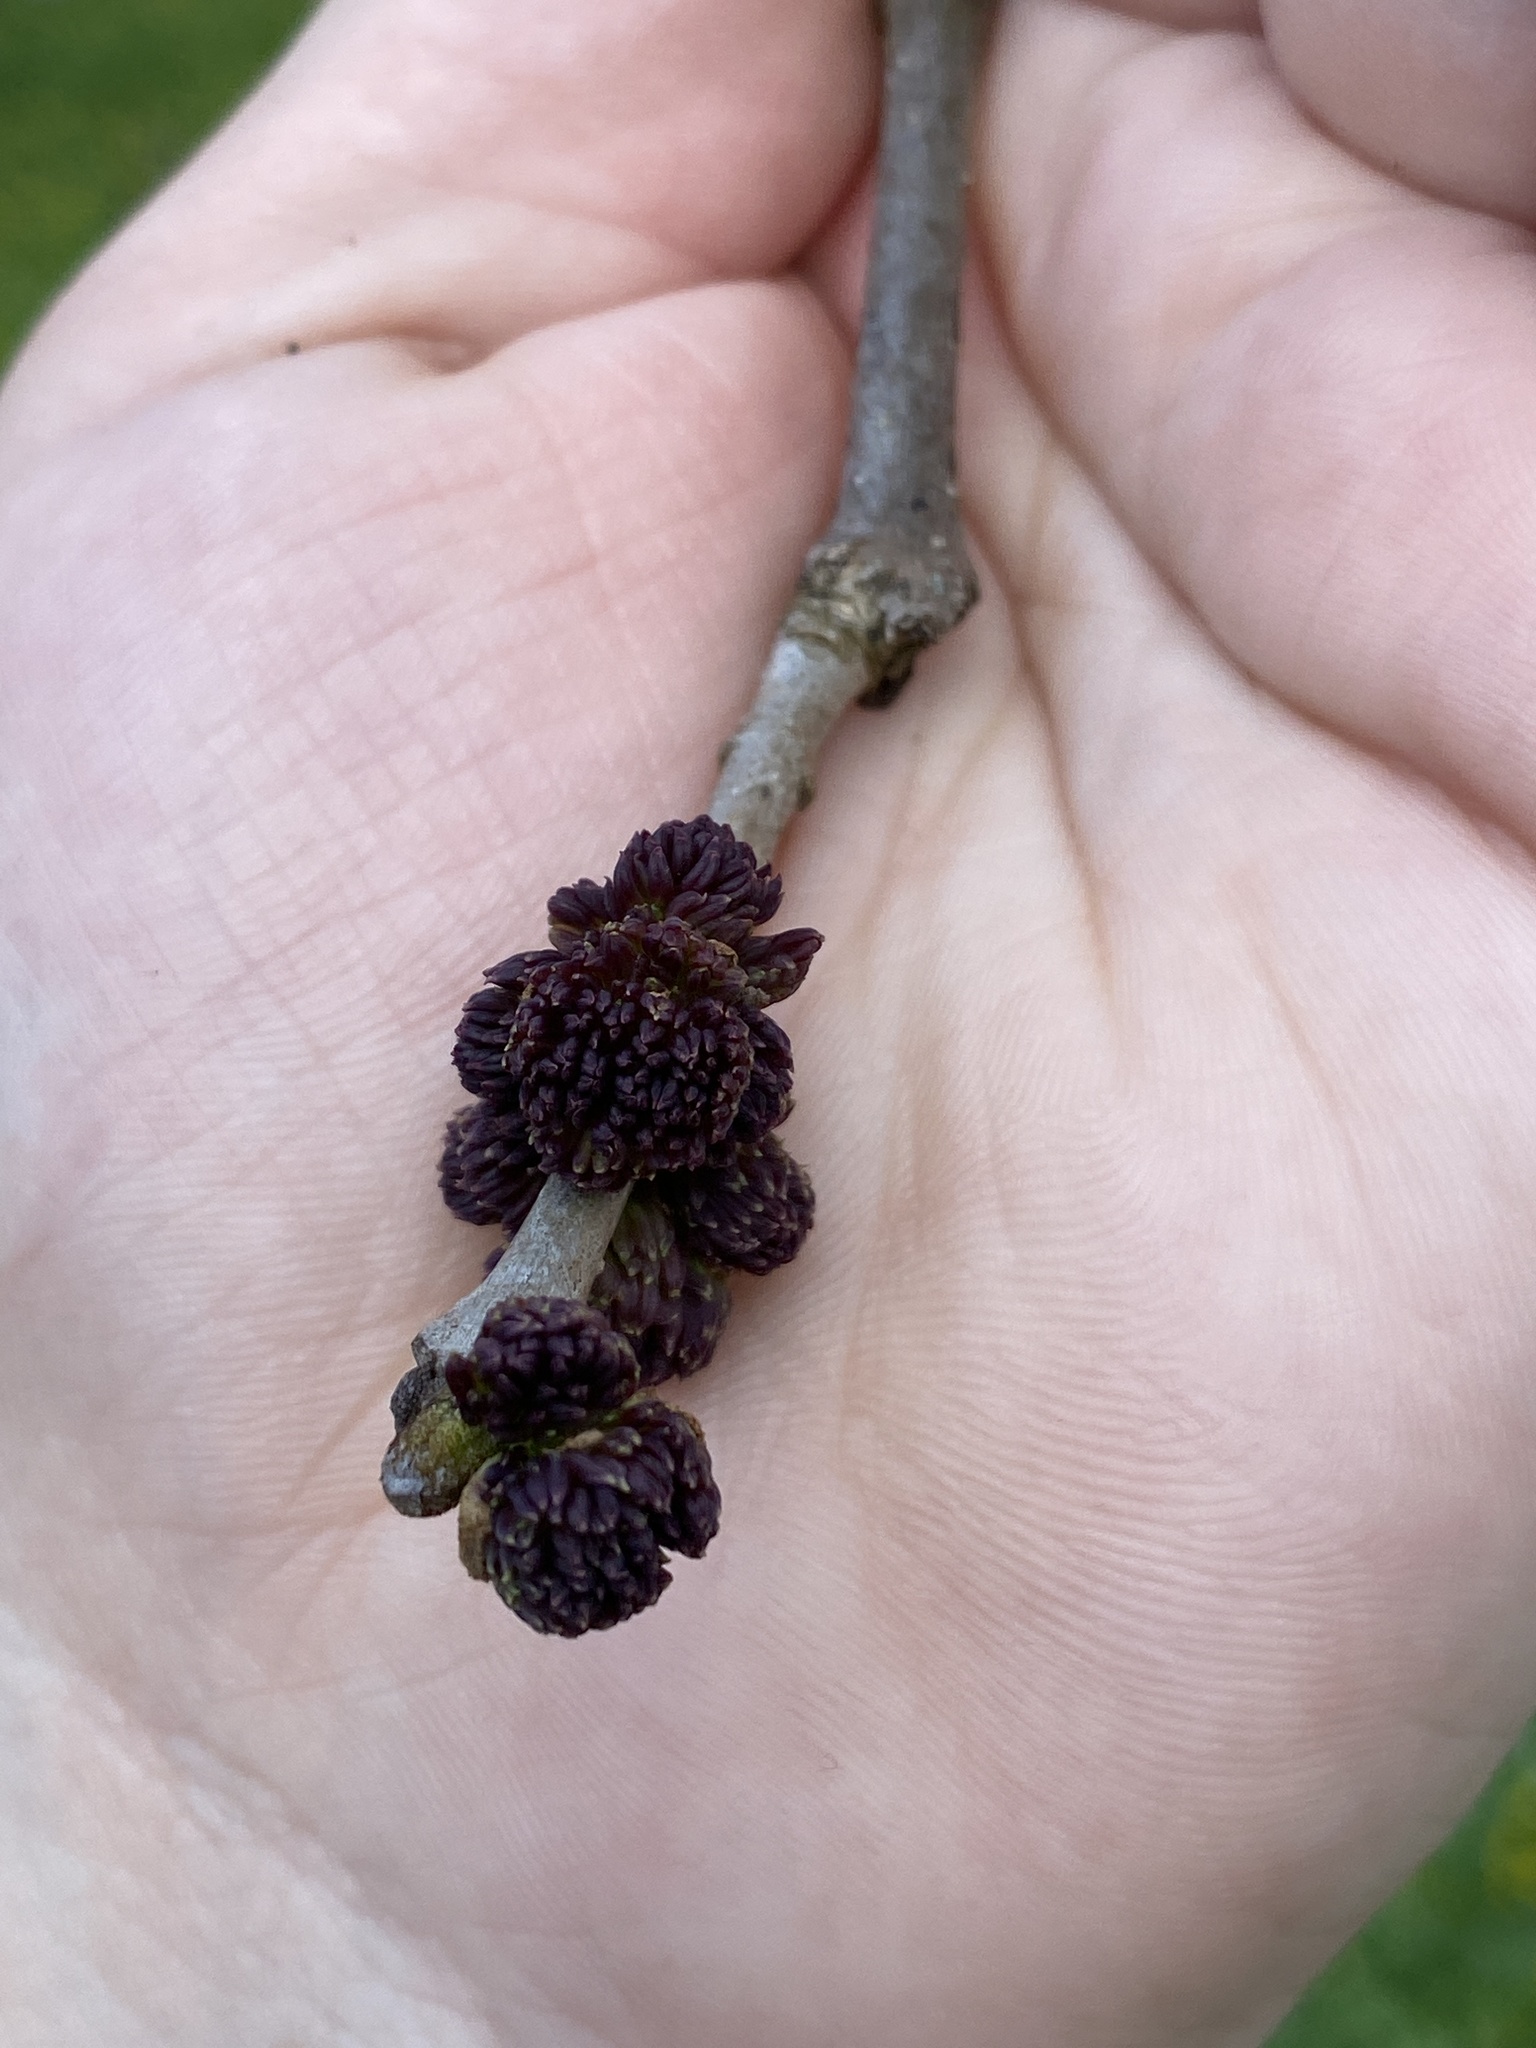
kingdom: Plantae
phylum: Tracheophyta
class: Magnoliopsida
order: Lamiales
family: Oleaceae
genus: Fraxinus
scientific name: Fraxinus americana
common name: White ash
